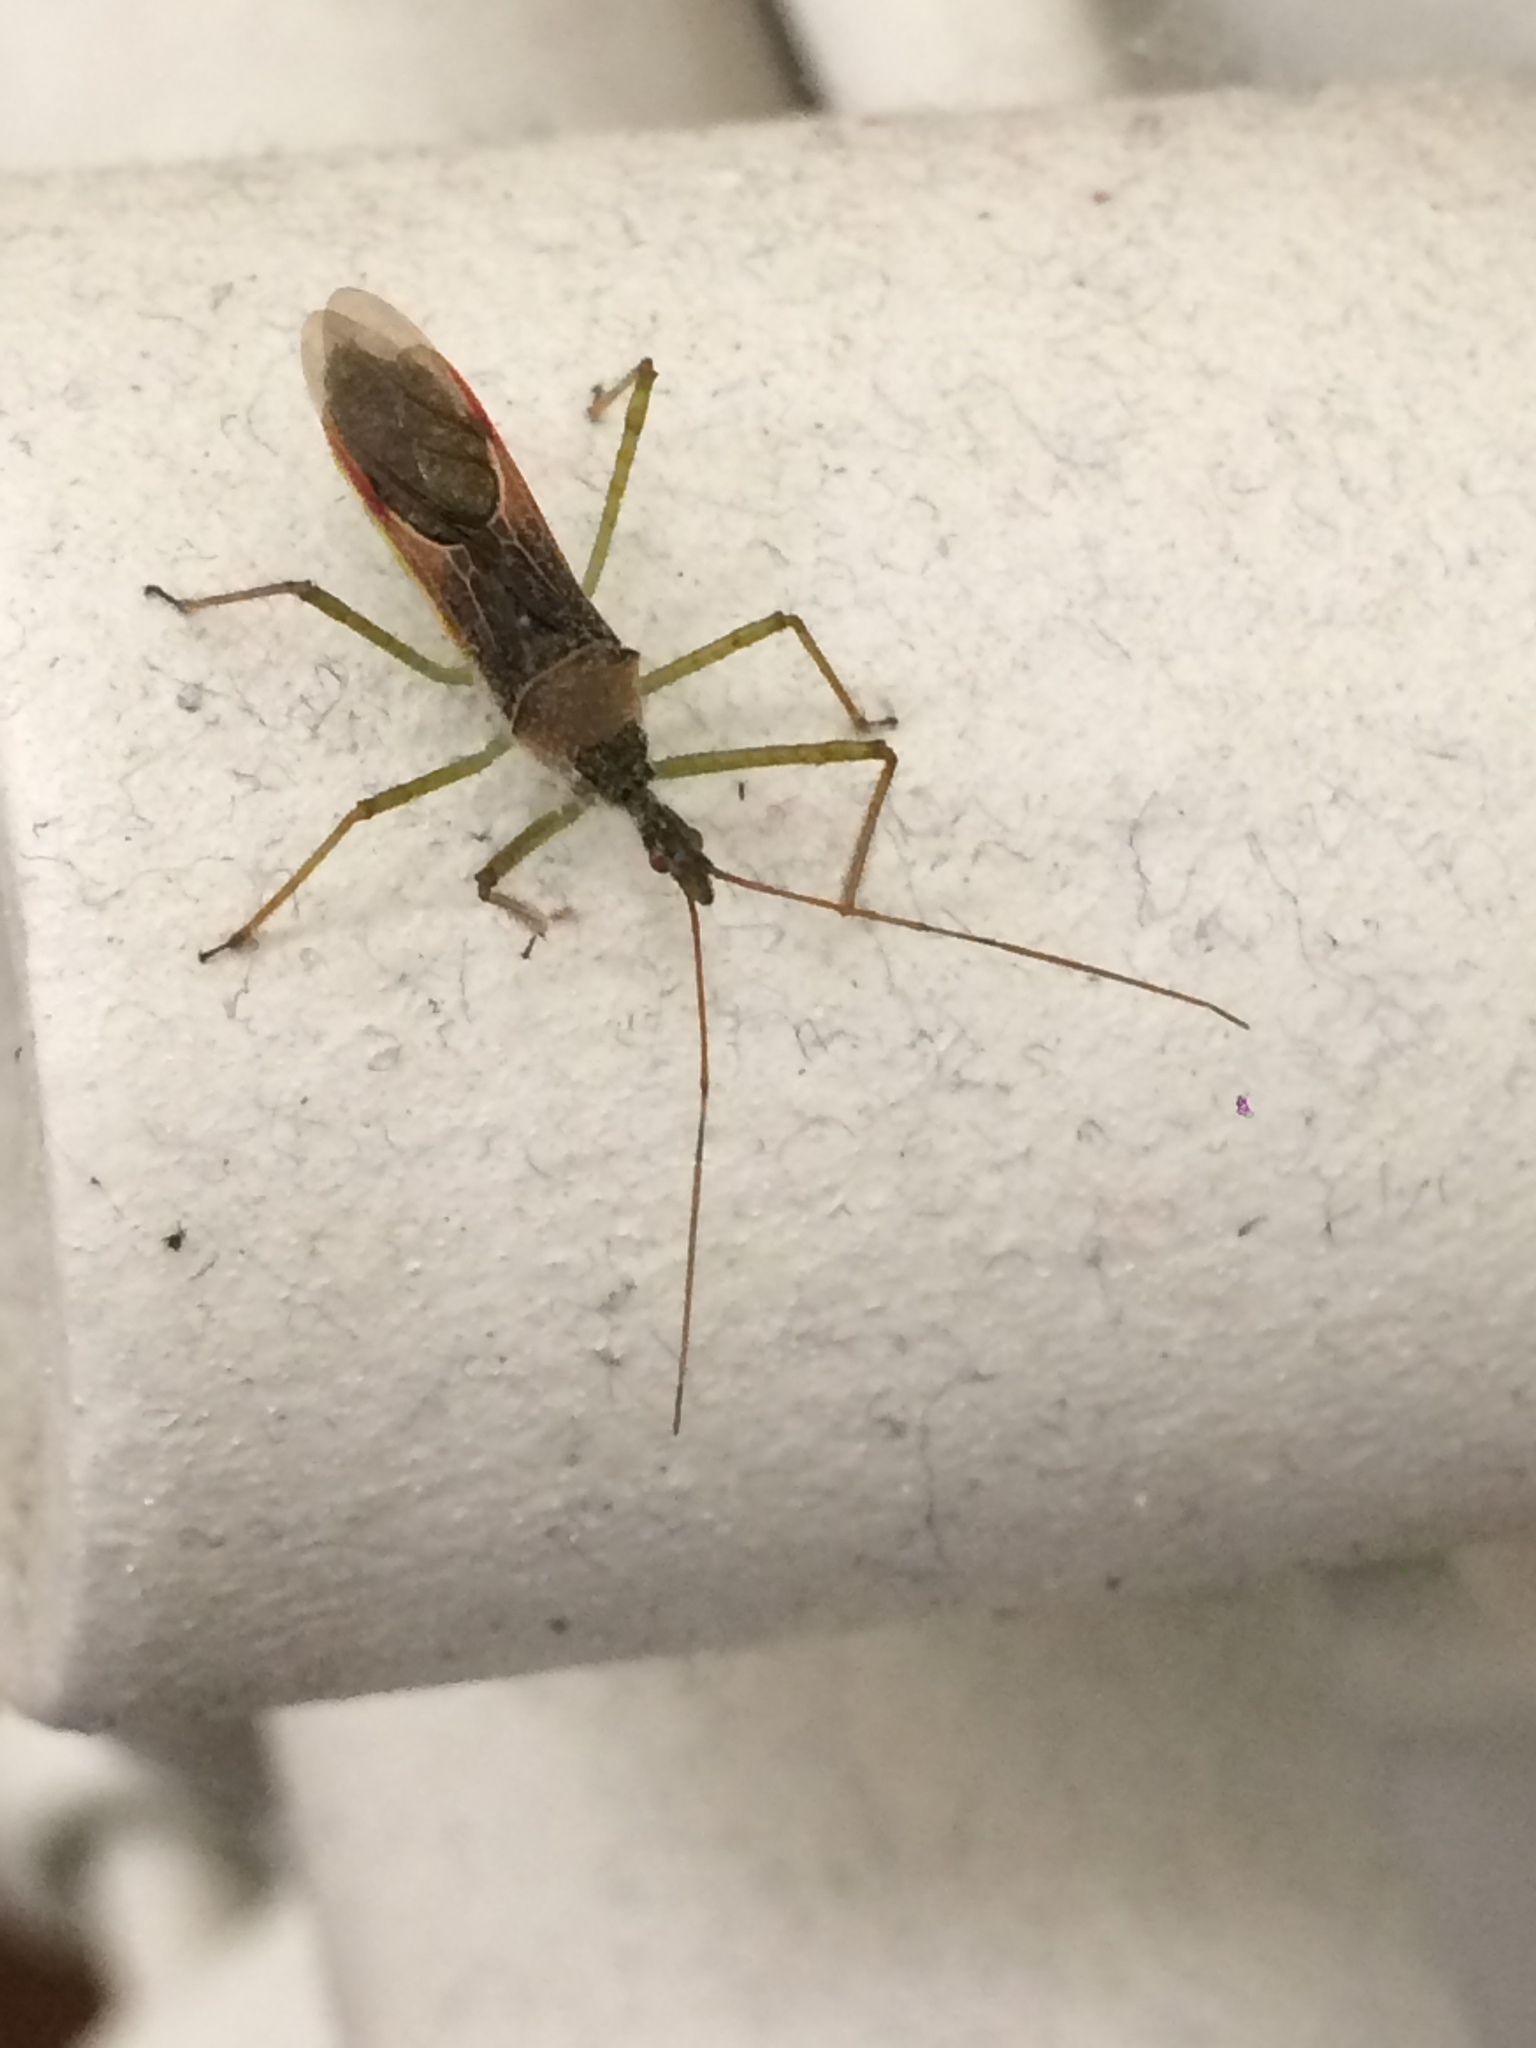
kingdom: Animalia
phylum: Arthropoda
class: Insecta
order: Hemiptera
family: Reduviidae
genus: Zelus
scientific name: Zelus renardii
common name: Assassin bug
